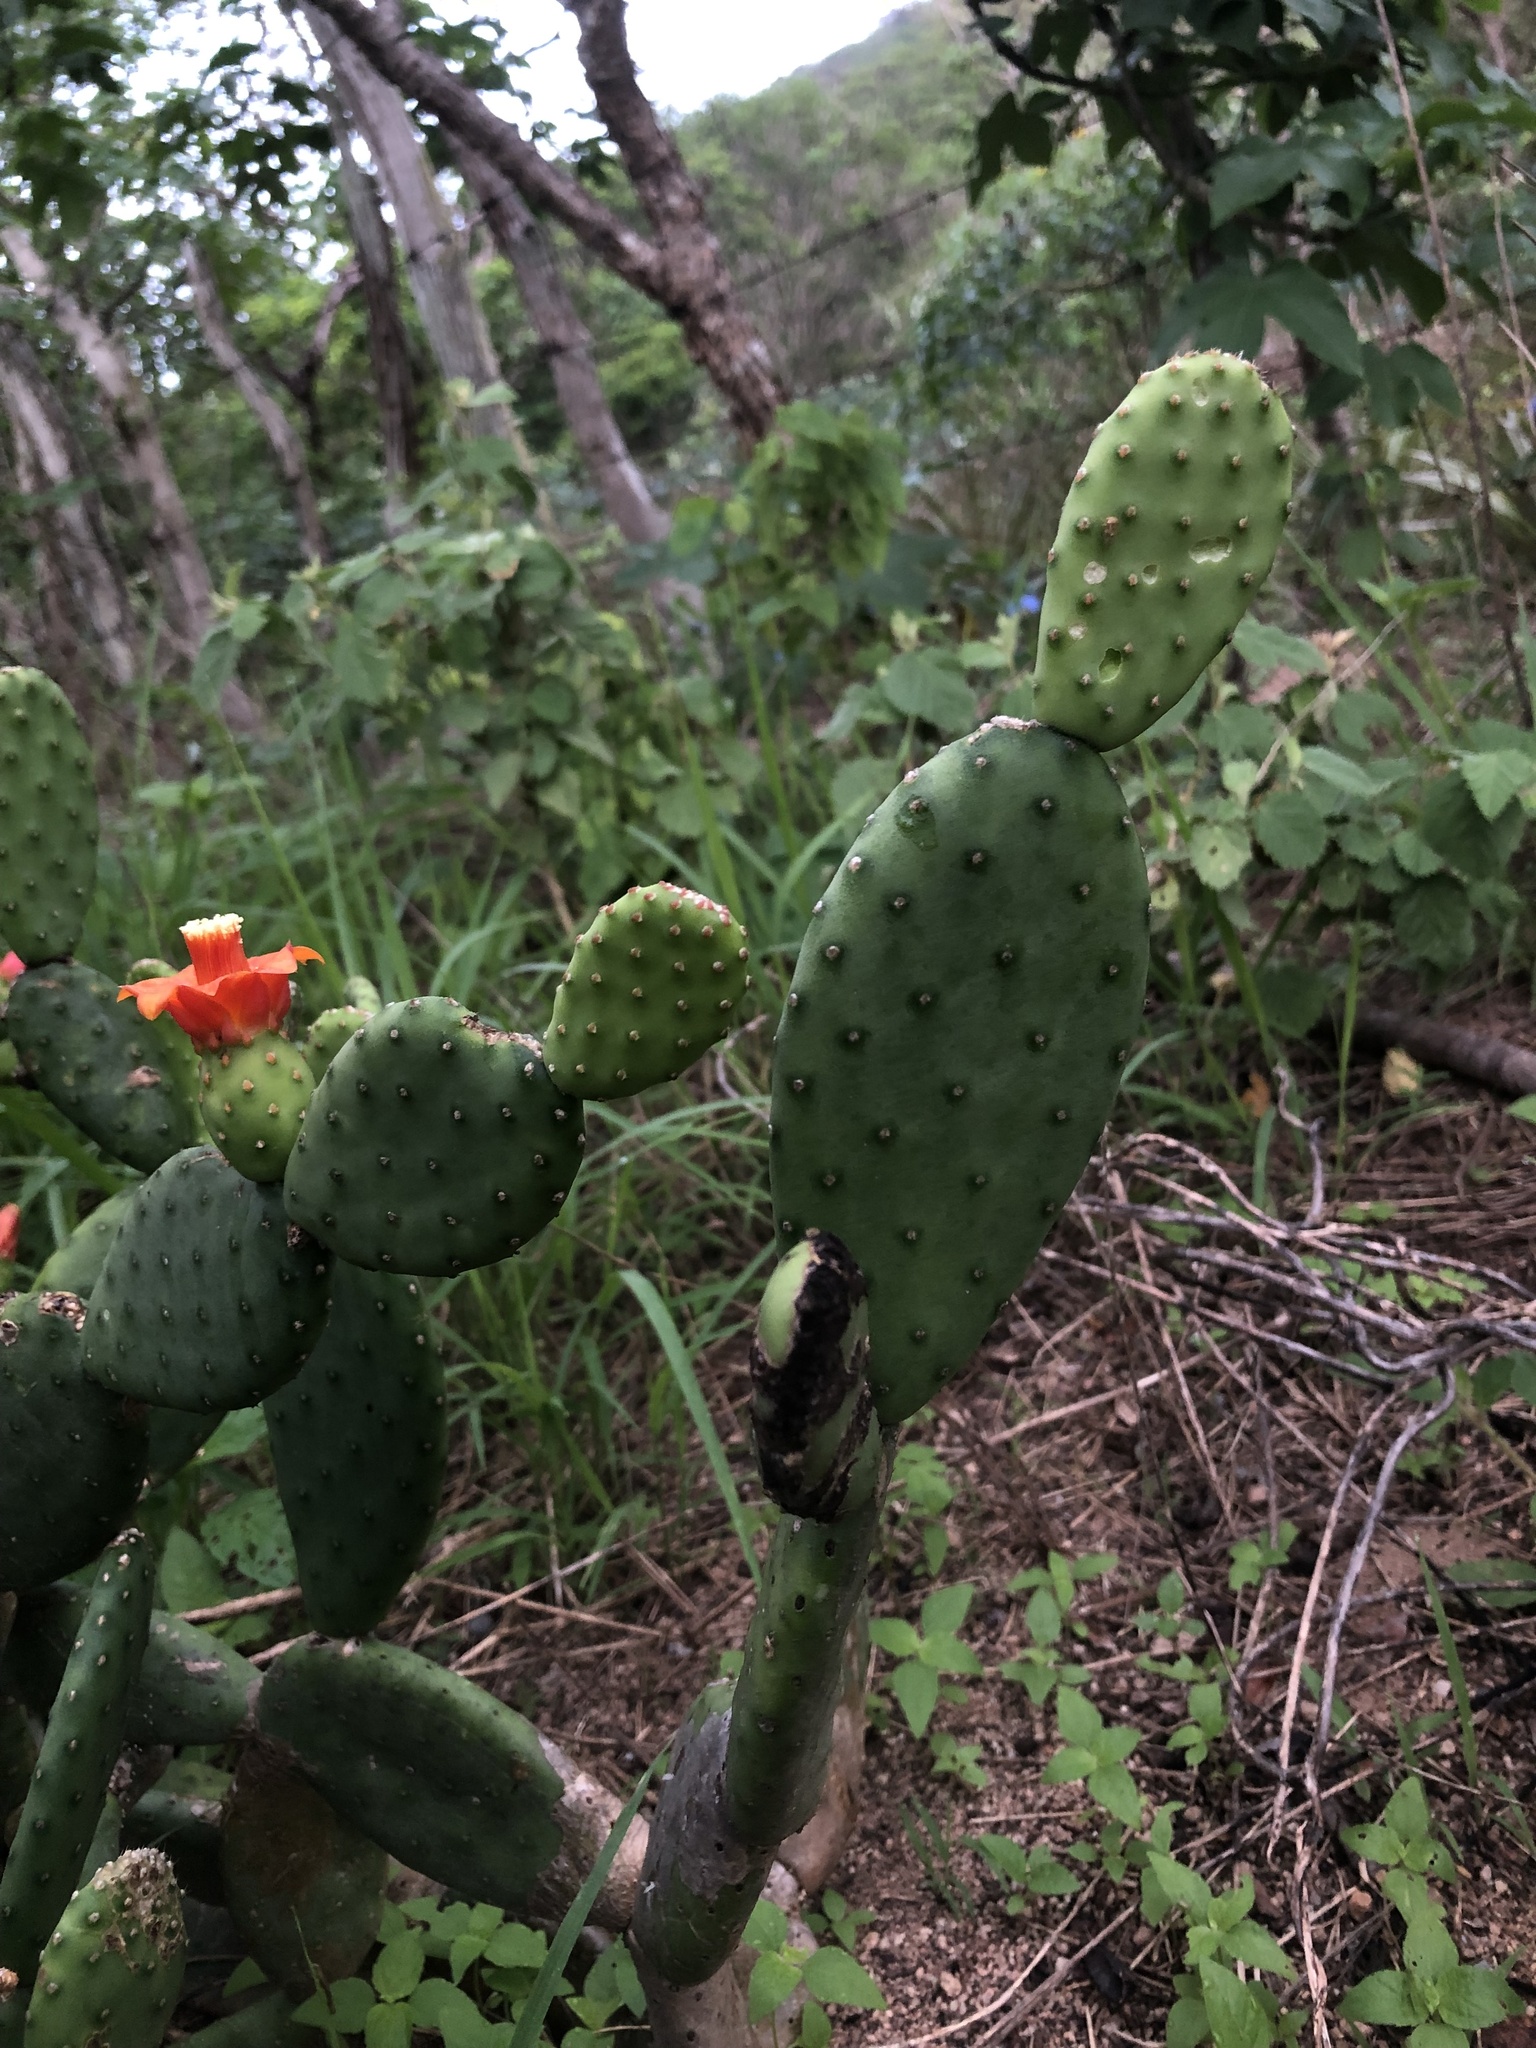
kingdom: Plantae
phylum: Tracheophyta
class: Magnoliopsida
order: Caryophyllales
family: Cactaceae
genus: Tacinga
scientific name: Tacinga inamoena
